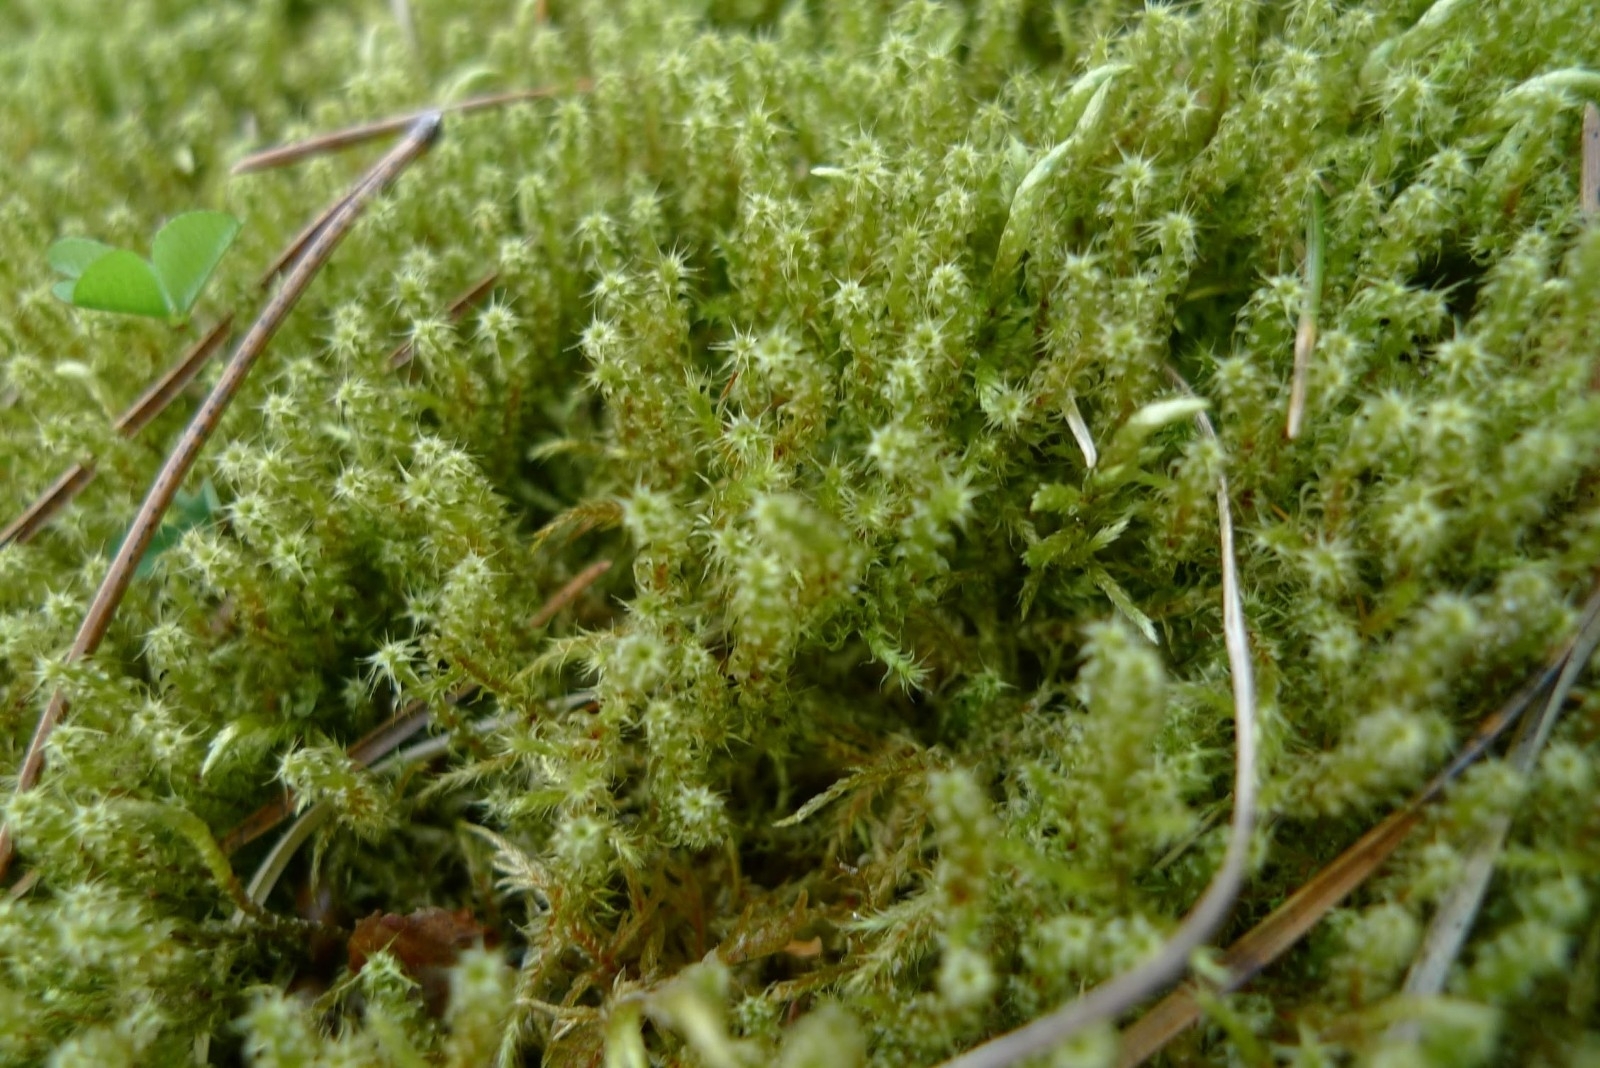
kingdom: Plantae
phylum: Bryophyta
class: Bryopsida
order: Hypnales
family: Hylocomiaceae
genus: Rhytidiadelphus
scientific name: Rhytidiadelphus squarrosus
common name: Springy turf-moss
